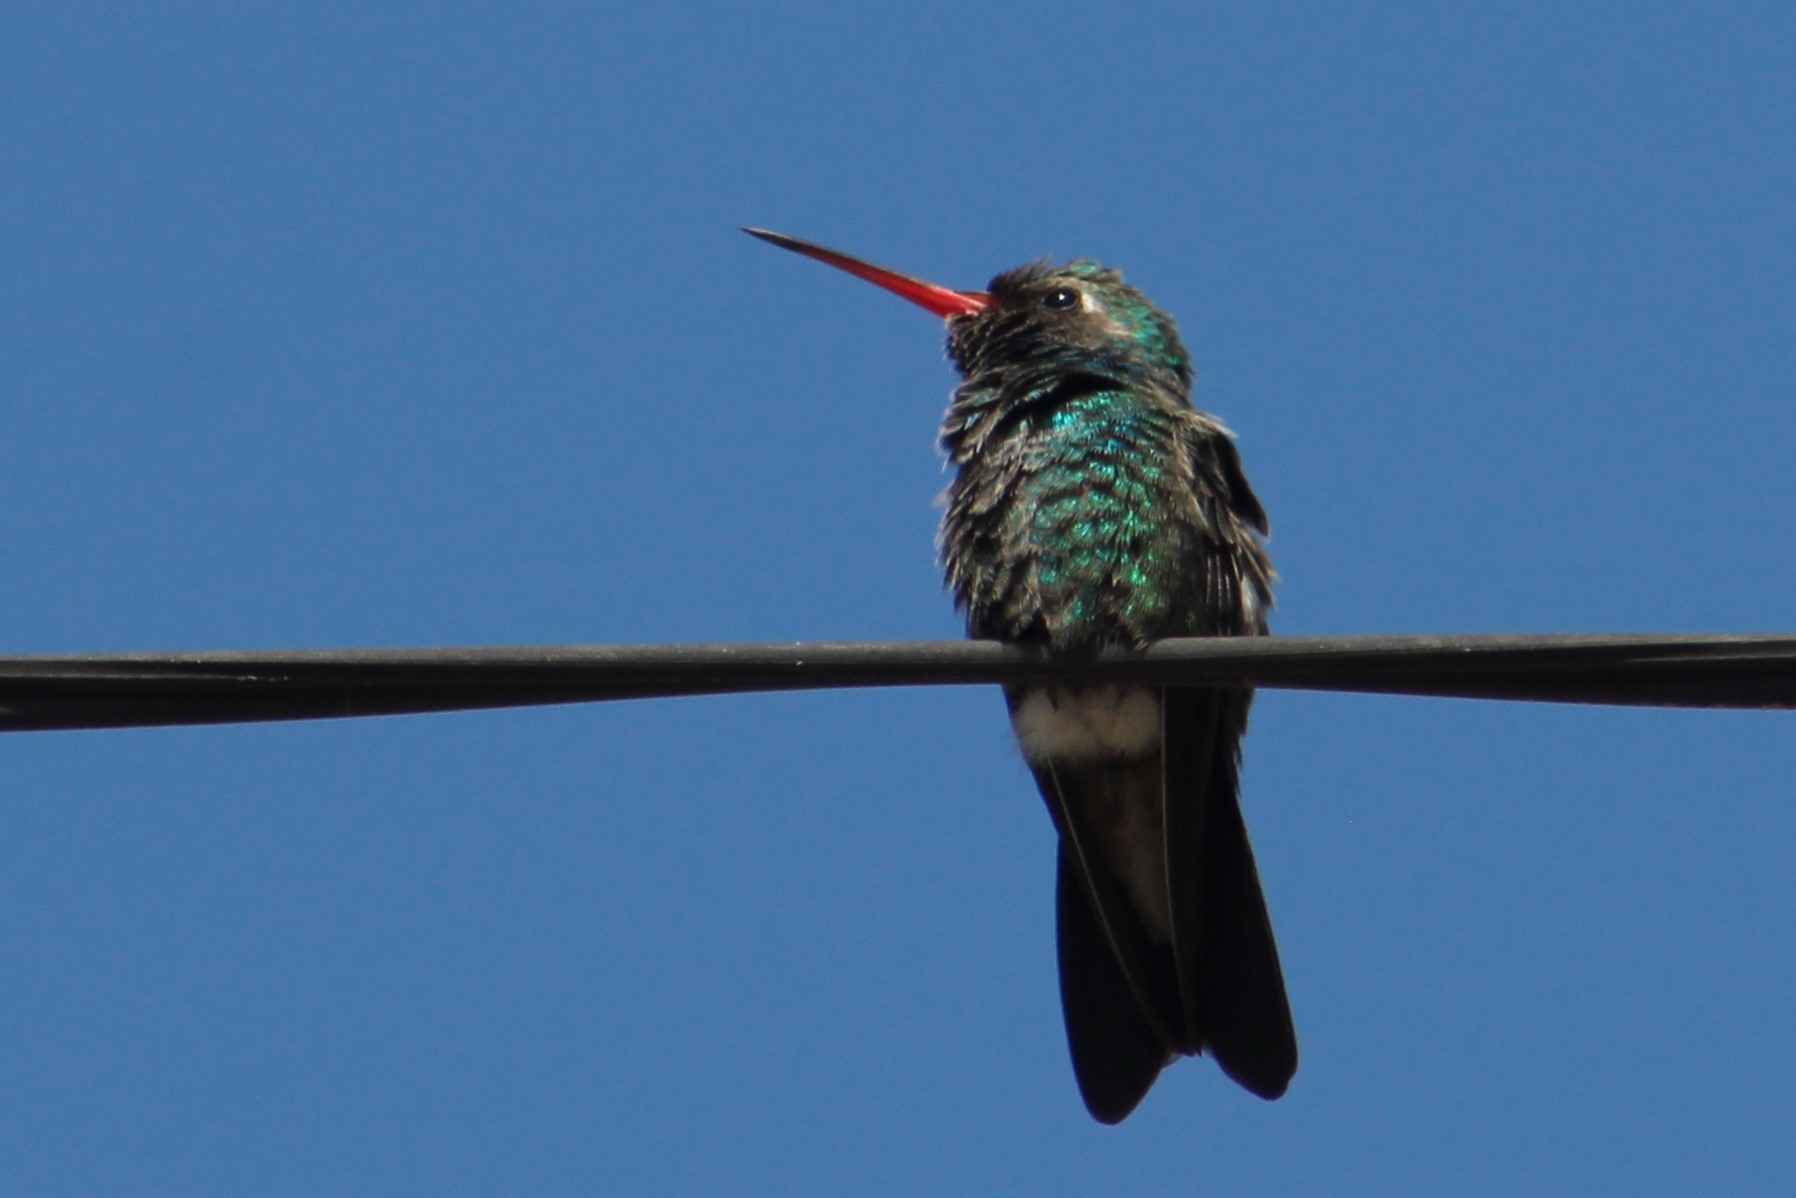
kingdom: Animalia
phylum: Chordata
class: Aves
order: Apodiformes
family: Trochilidae
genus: Cynanthus
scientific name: Cynanthus latirostris
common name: Broad-billed hummingbird
